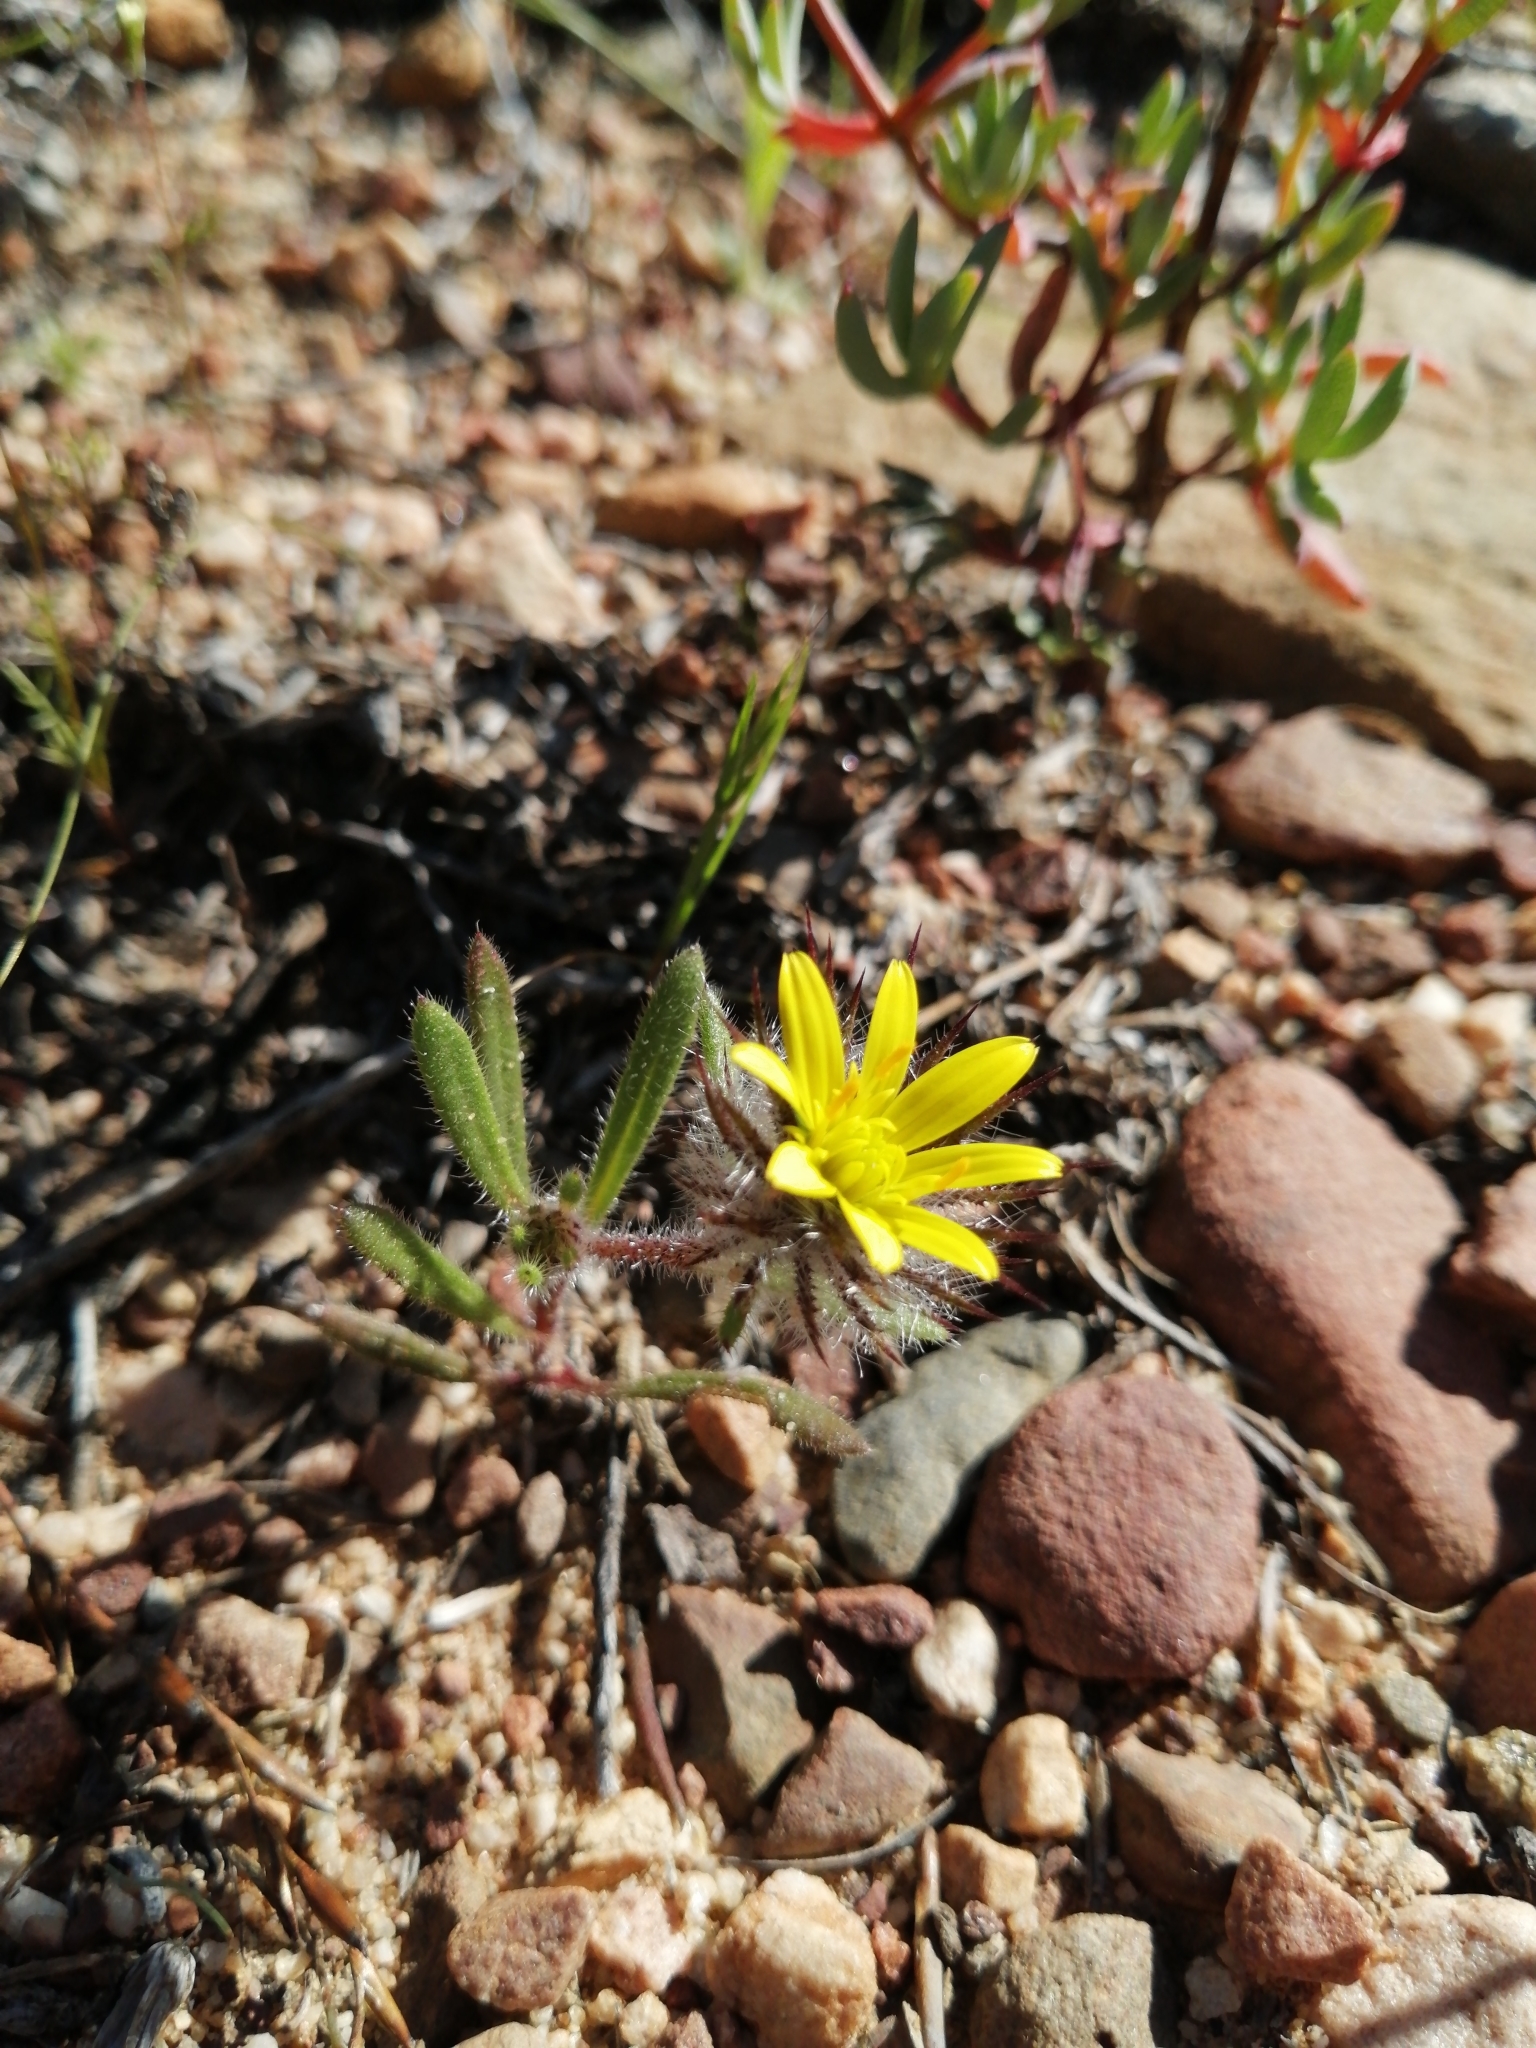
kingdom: Plantae
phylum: Tracheophyta
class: Magnoliopsida
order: Asterales
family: Asteraceae
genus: Gorteria
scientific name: Gorteria piloselloides
